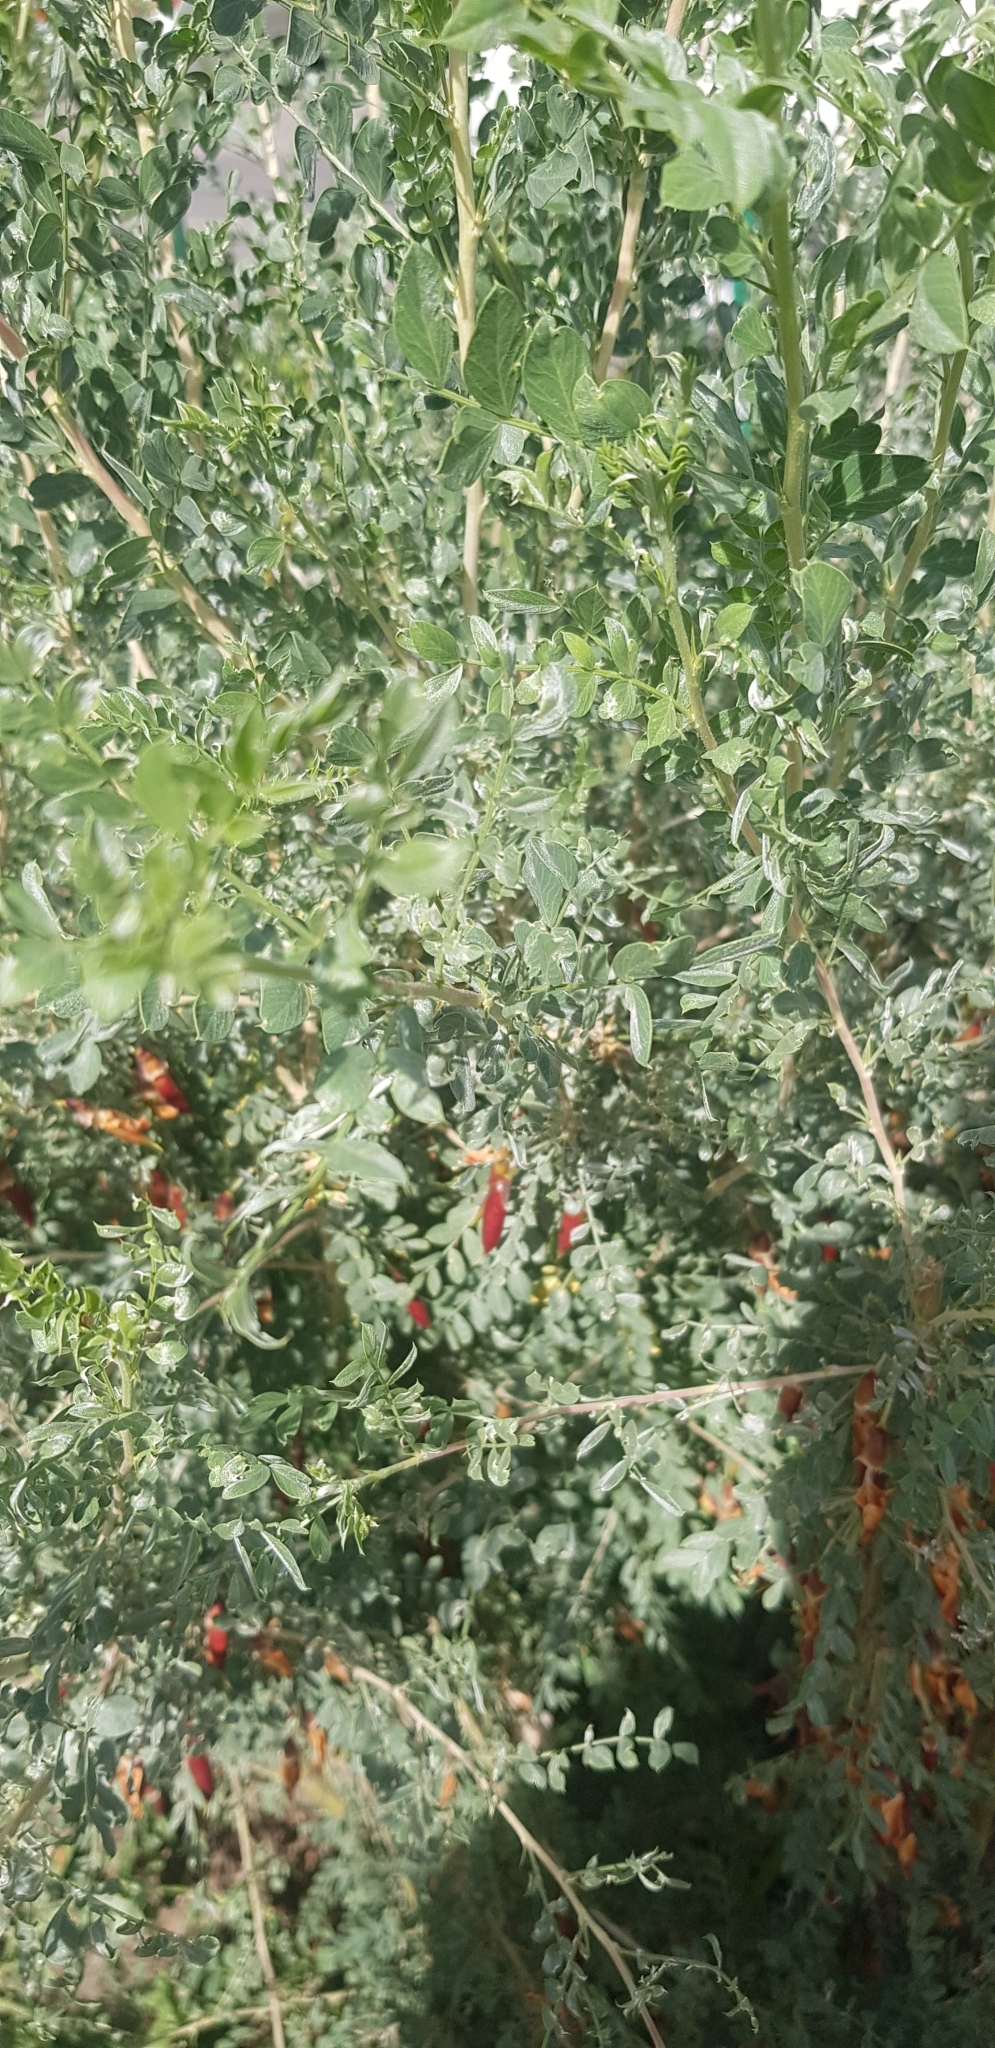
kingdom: Plantae
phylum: Tracheophyta
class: Magnoliopsida
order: Fabales
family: Fabaceae
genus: Caragana
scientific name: Caragana arborescens
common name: Siberian peashrub
